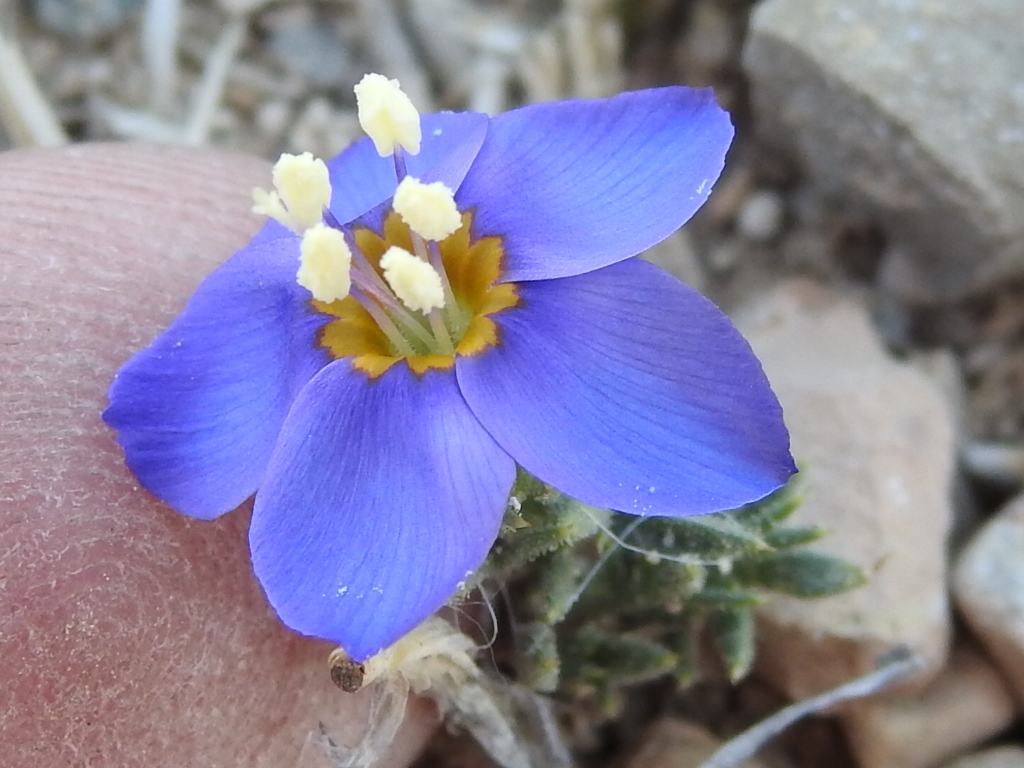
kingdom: Plantae
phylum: Tracheophyta
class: Magnoliopsida
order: Ericales
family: Polemoniaceae
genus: Giliastrum
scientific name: Giliastrum acerosum
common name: Bluebowls
